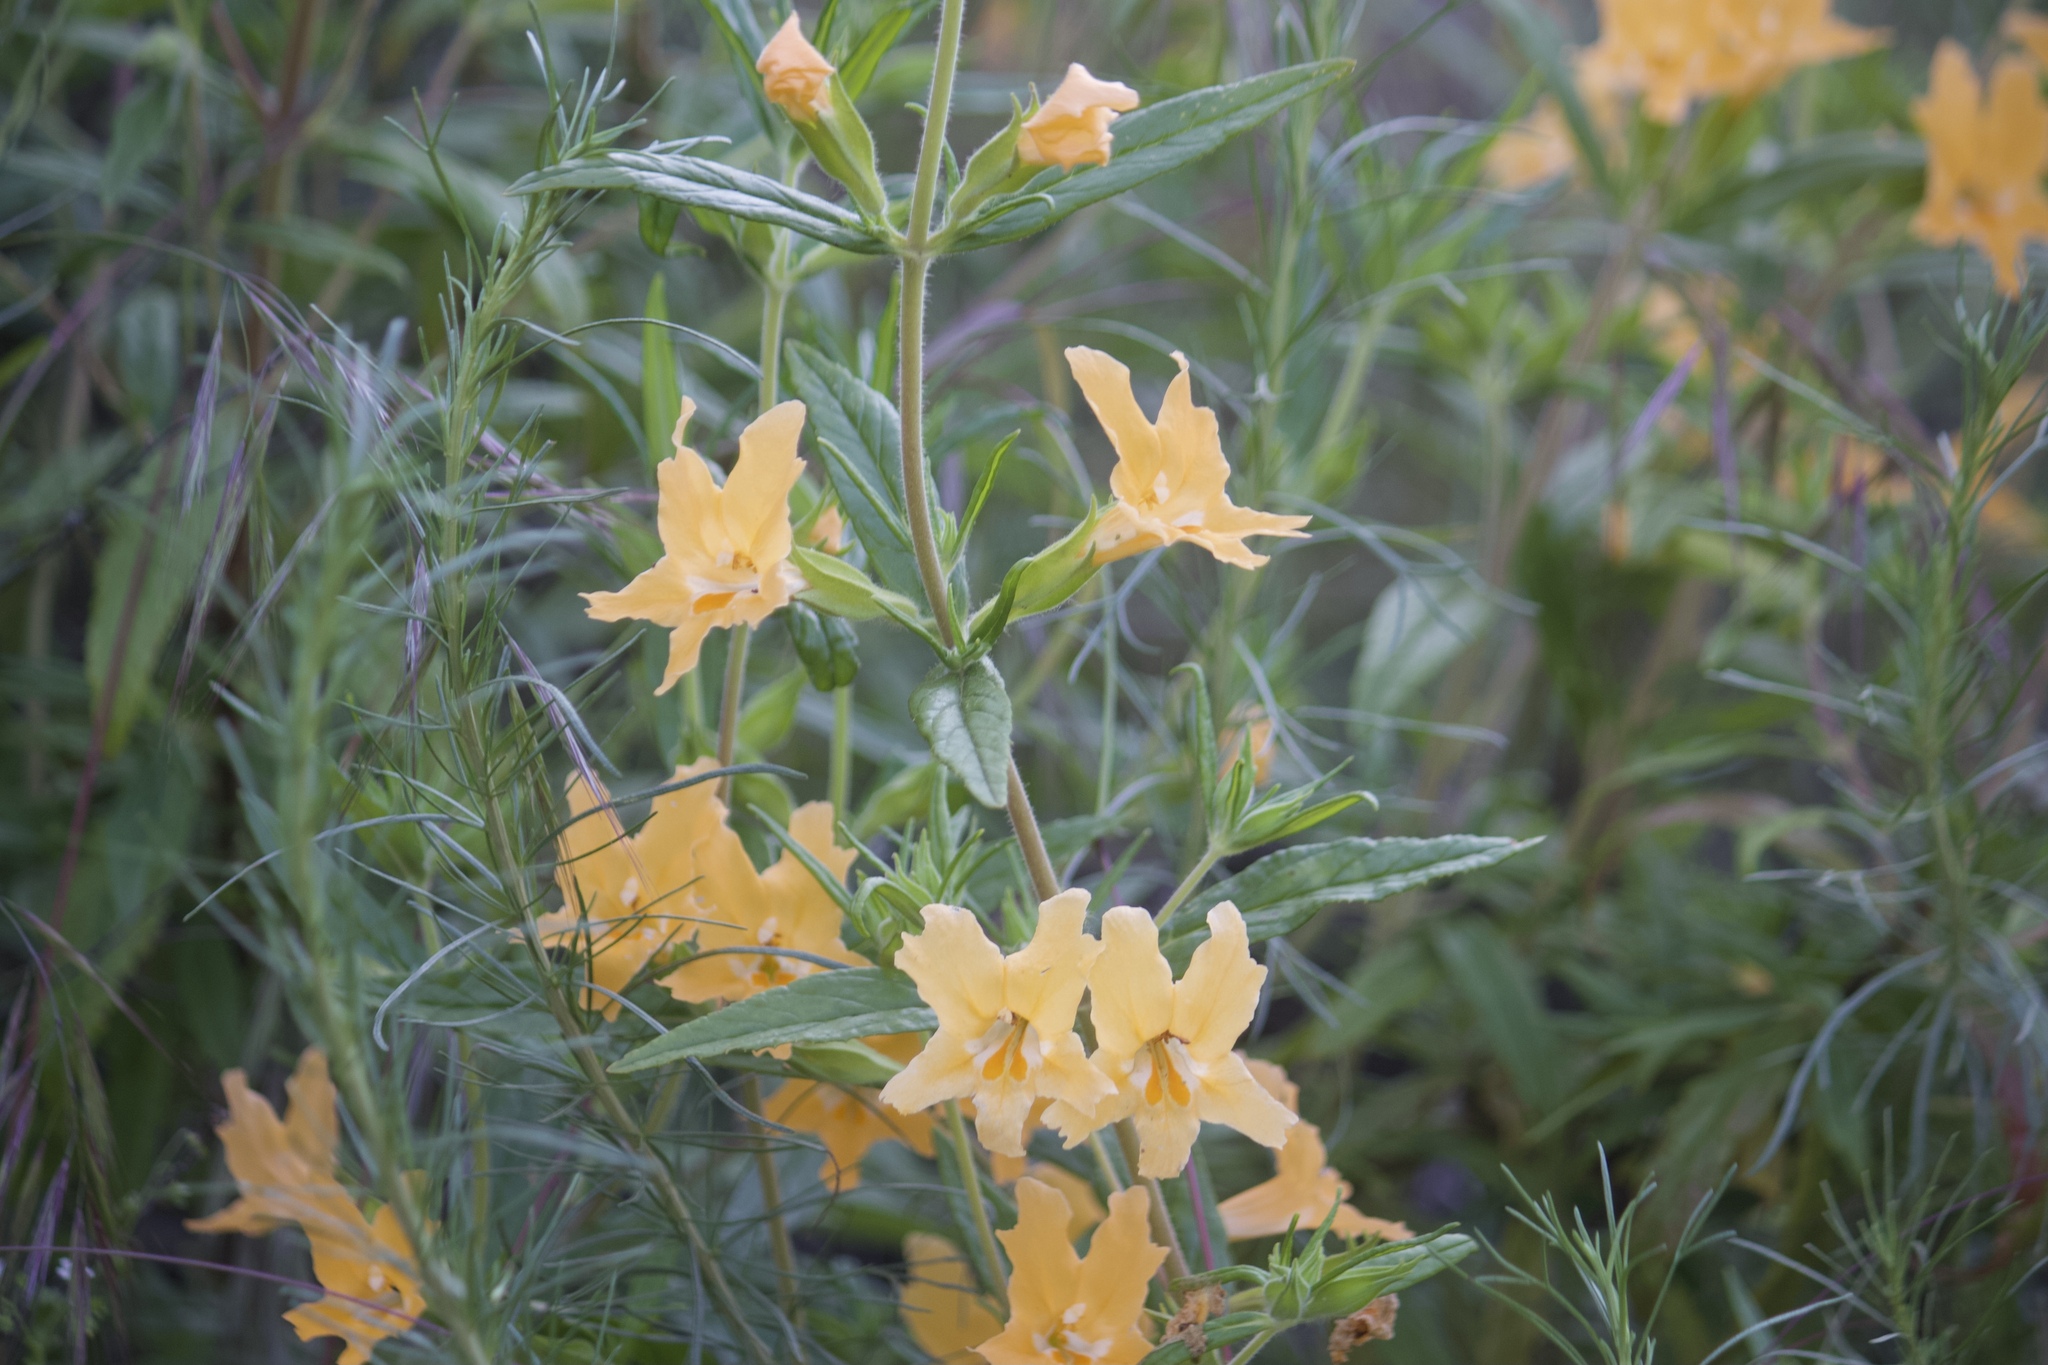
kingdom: Plantae
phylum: Tracheophyta
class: Magnoliopsida
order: Lamiales
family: Phrymaceae
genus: Diplacus
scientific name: Diplacus longiflorus
